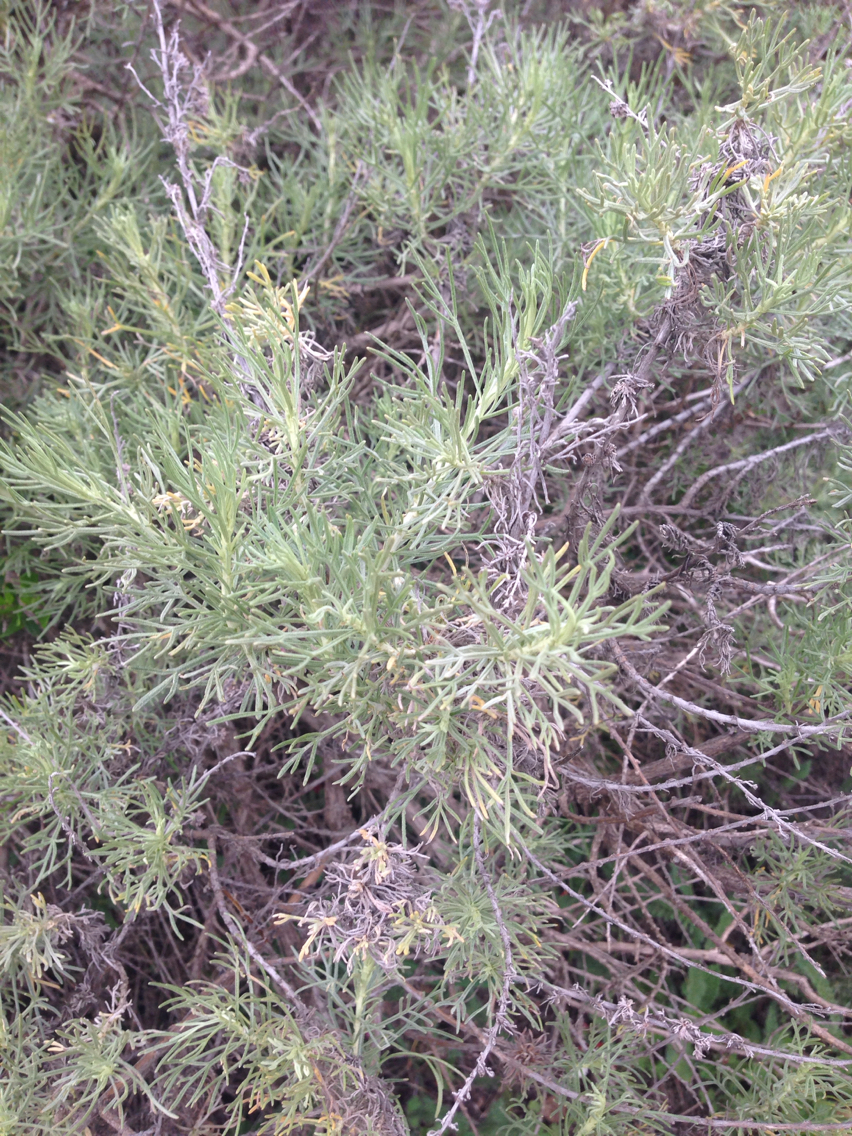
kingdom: Plantae
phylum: Tracheophyta
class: Magnoliopsida
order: Asterales
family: Asteraceae
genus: Artemisia
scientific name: Artemisia californica
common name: California sagebrush
